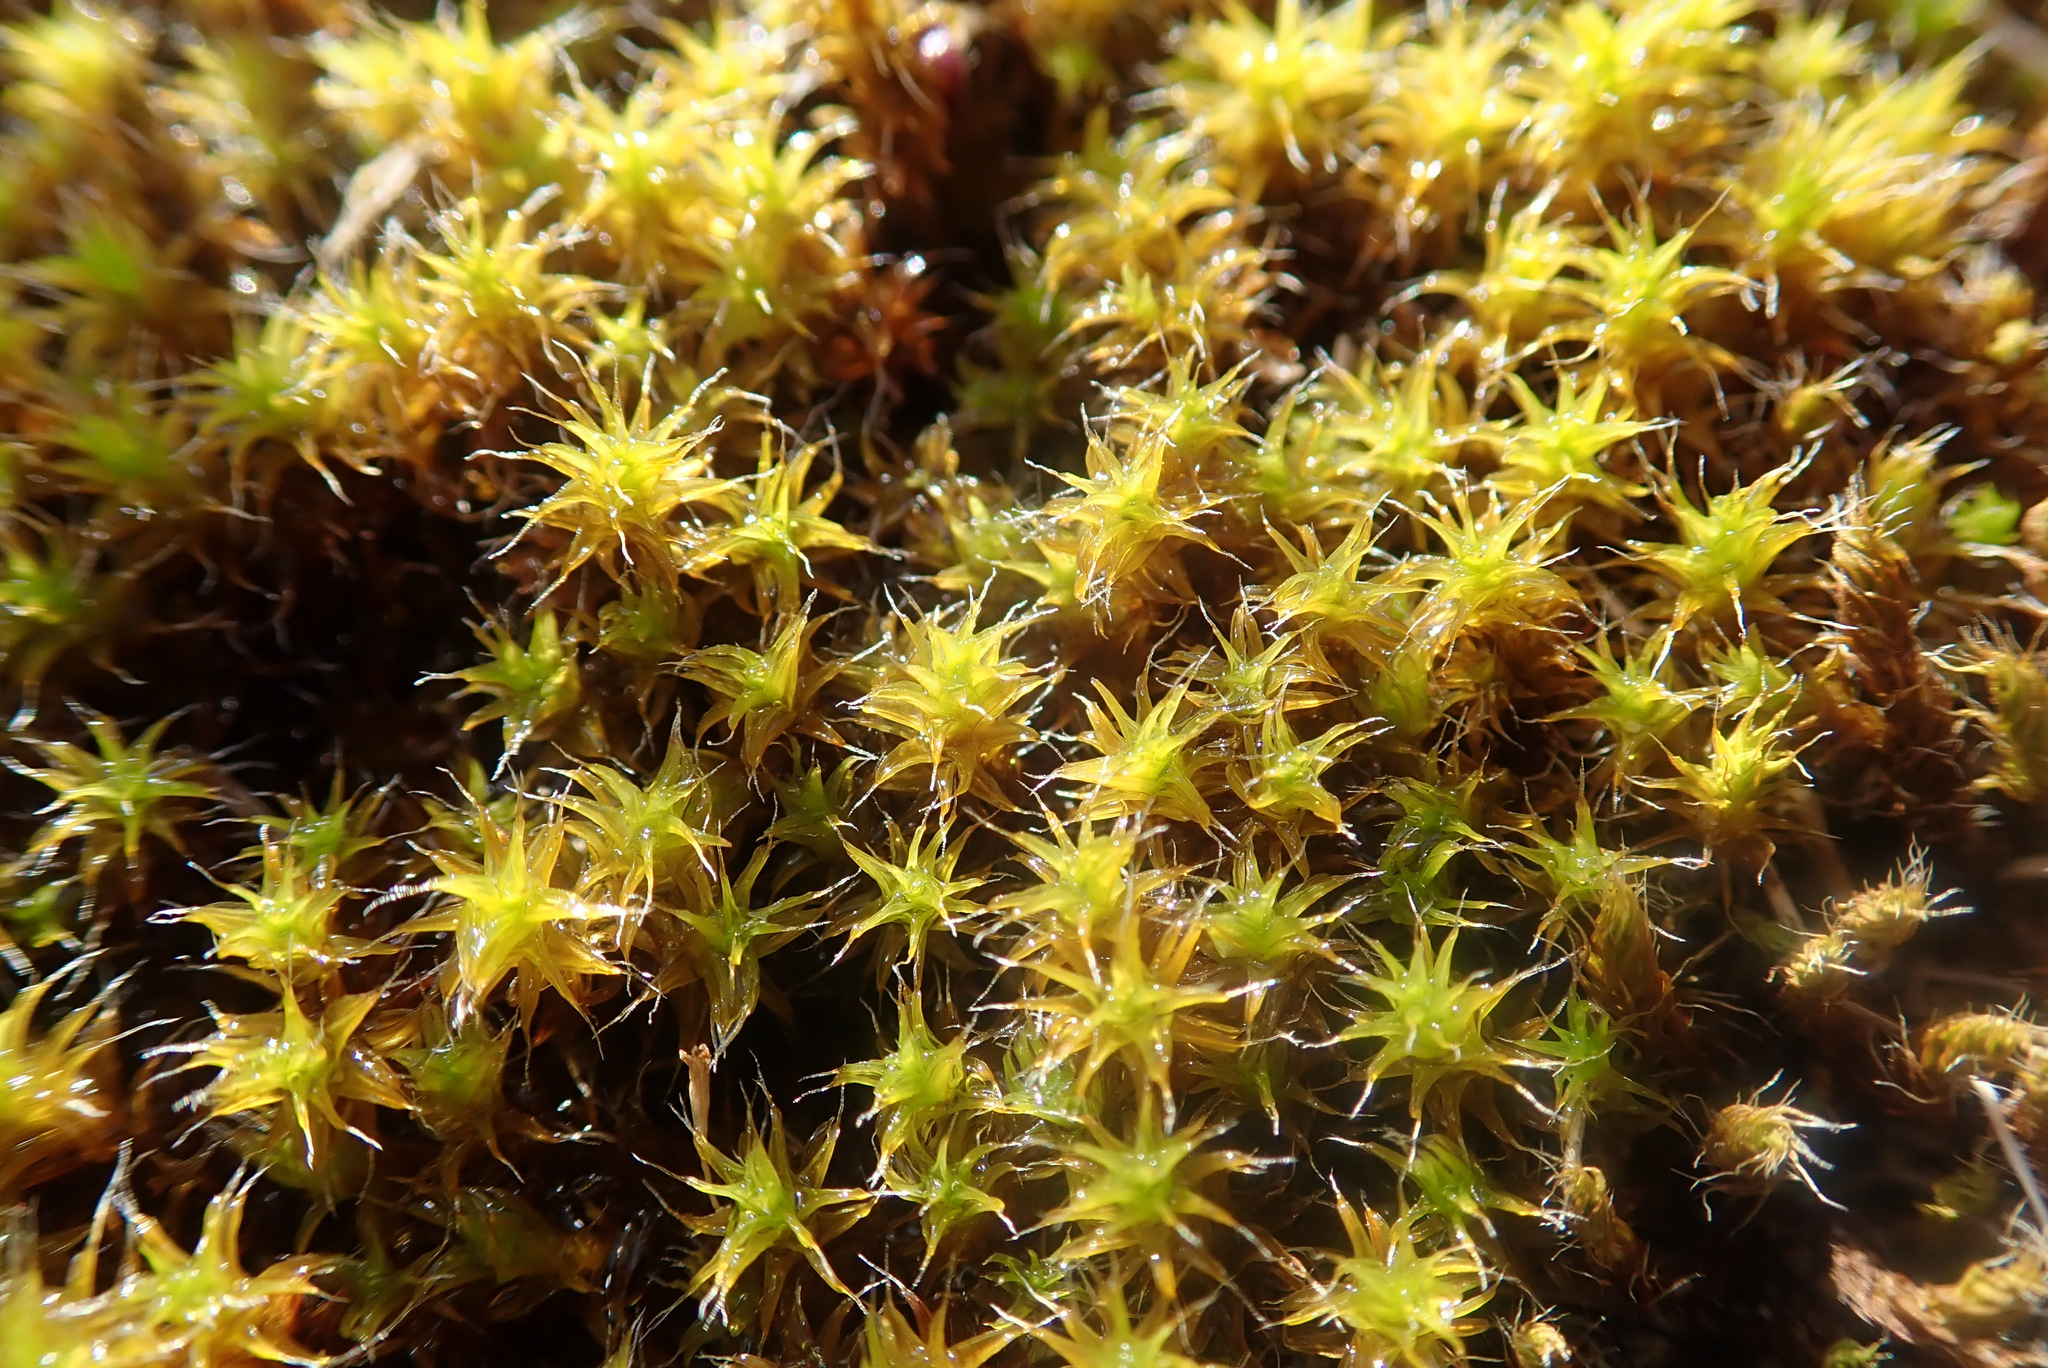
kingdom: Plantae
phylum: Bryophyta
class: Bryopsida
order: Pottiales
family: Pottiaceae
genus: Syntrichia
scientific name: Syntrichia ruralis
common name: Sidewalk screw moss
